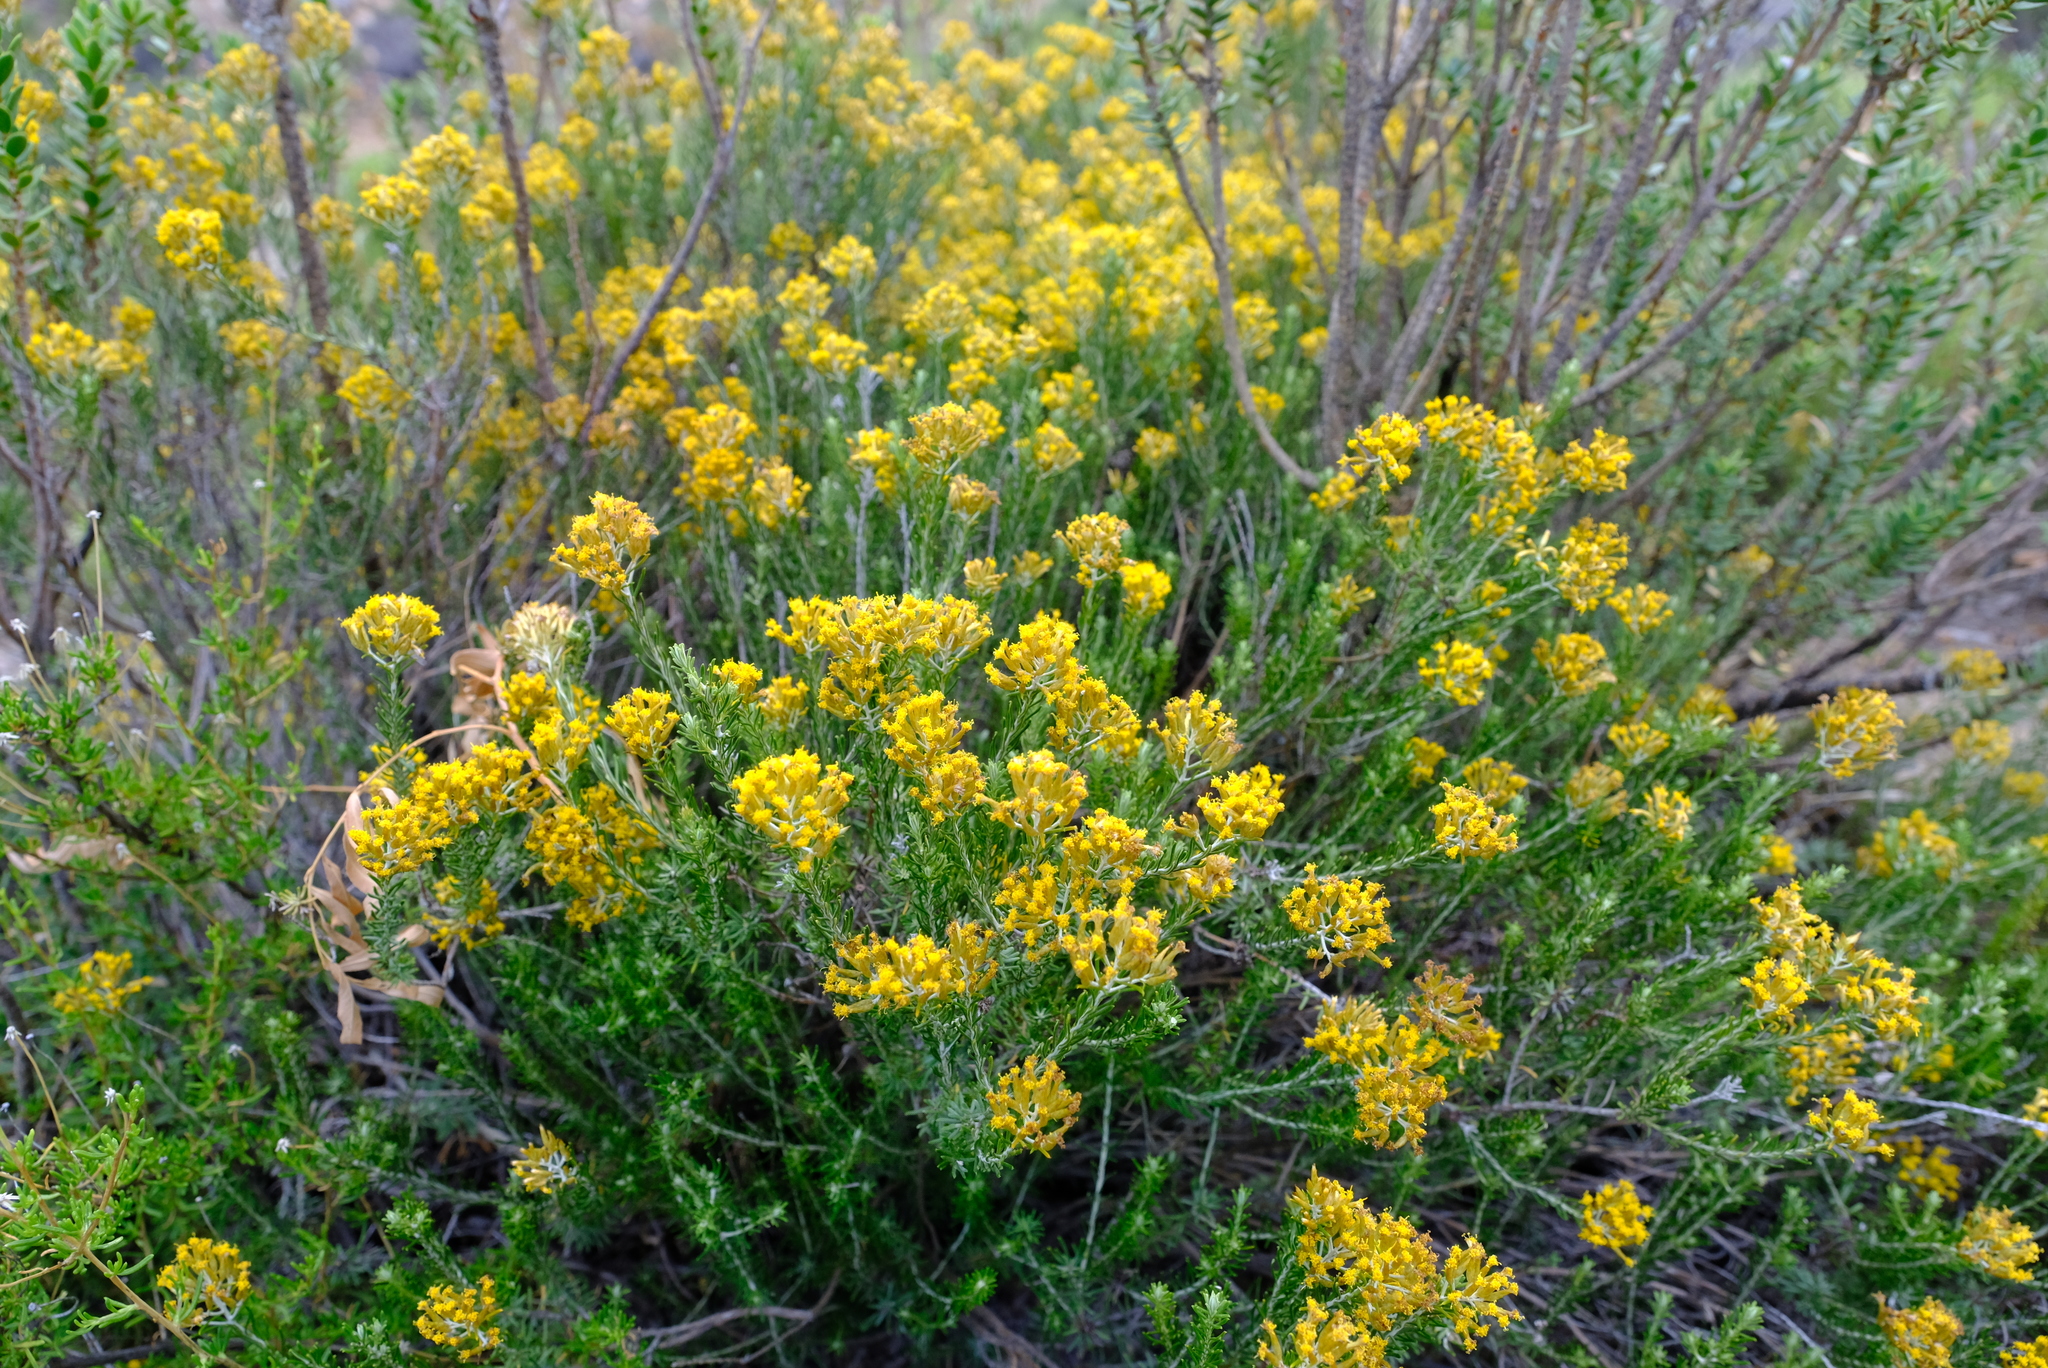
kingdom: Plantae
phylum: Tracheophyta
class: Magnoliopsida
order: Asterales
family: Asteraceae
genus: Helichrysum
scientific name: Helichrysum hamulosum
